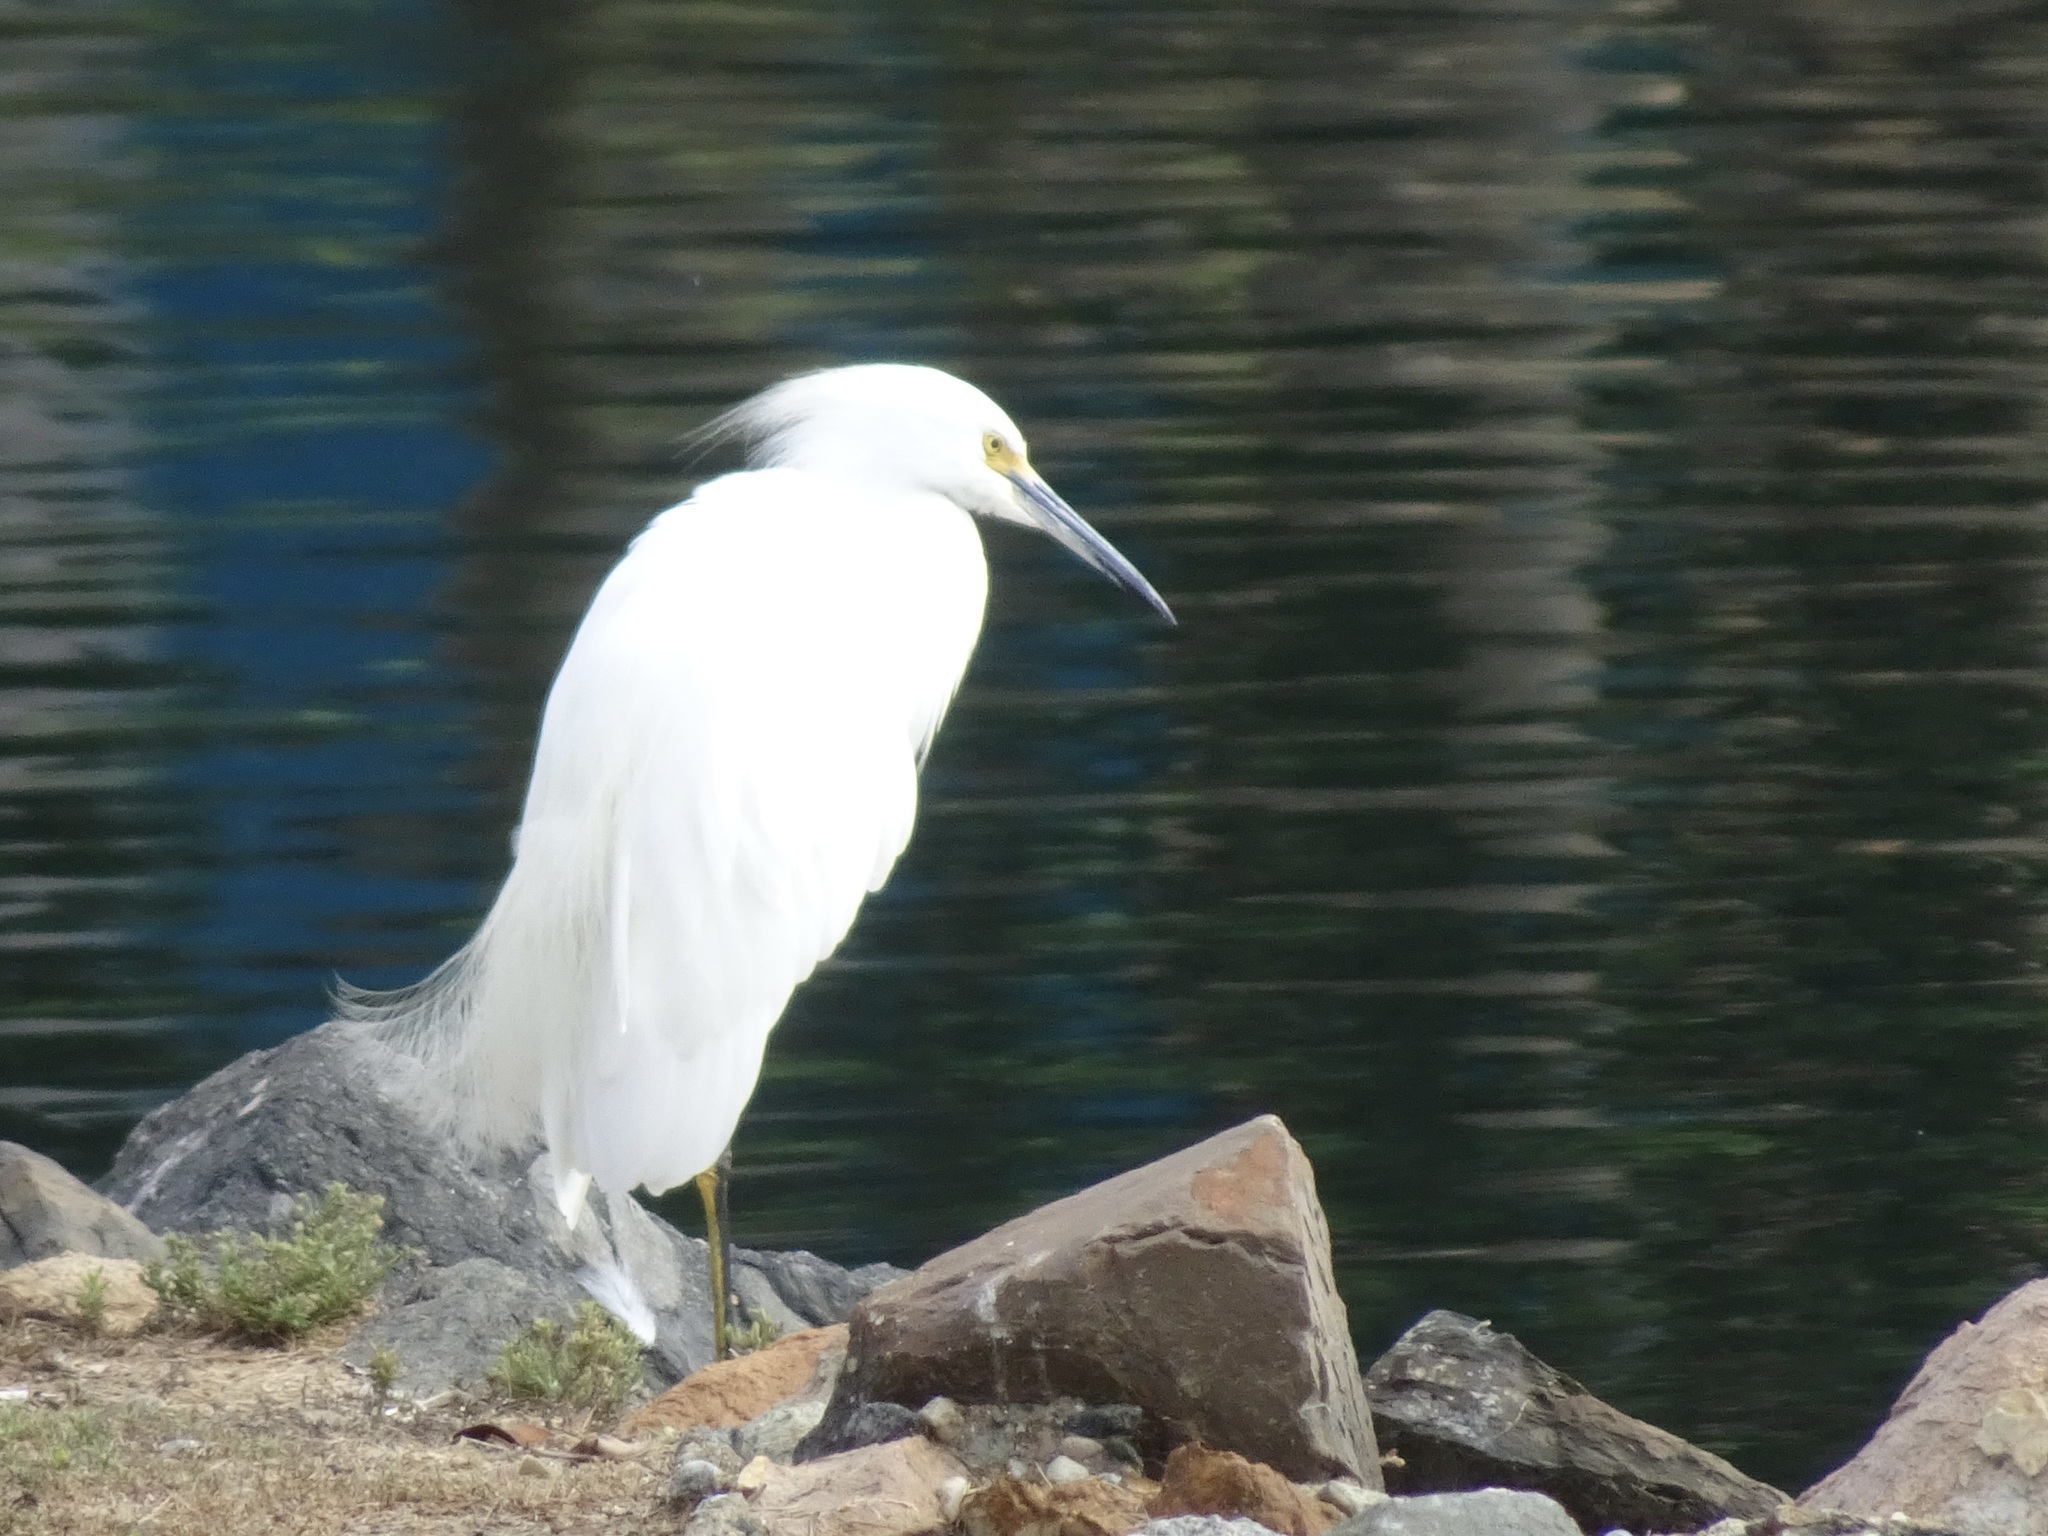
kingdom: Animalia
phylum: Chordata
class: Aves
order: Pelecaniformes
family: Ardeidae
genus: Egretta
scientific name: Egretta thula
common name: Snowy egret
